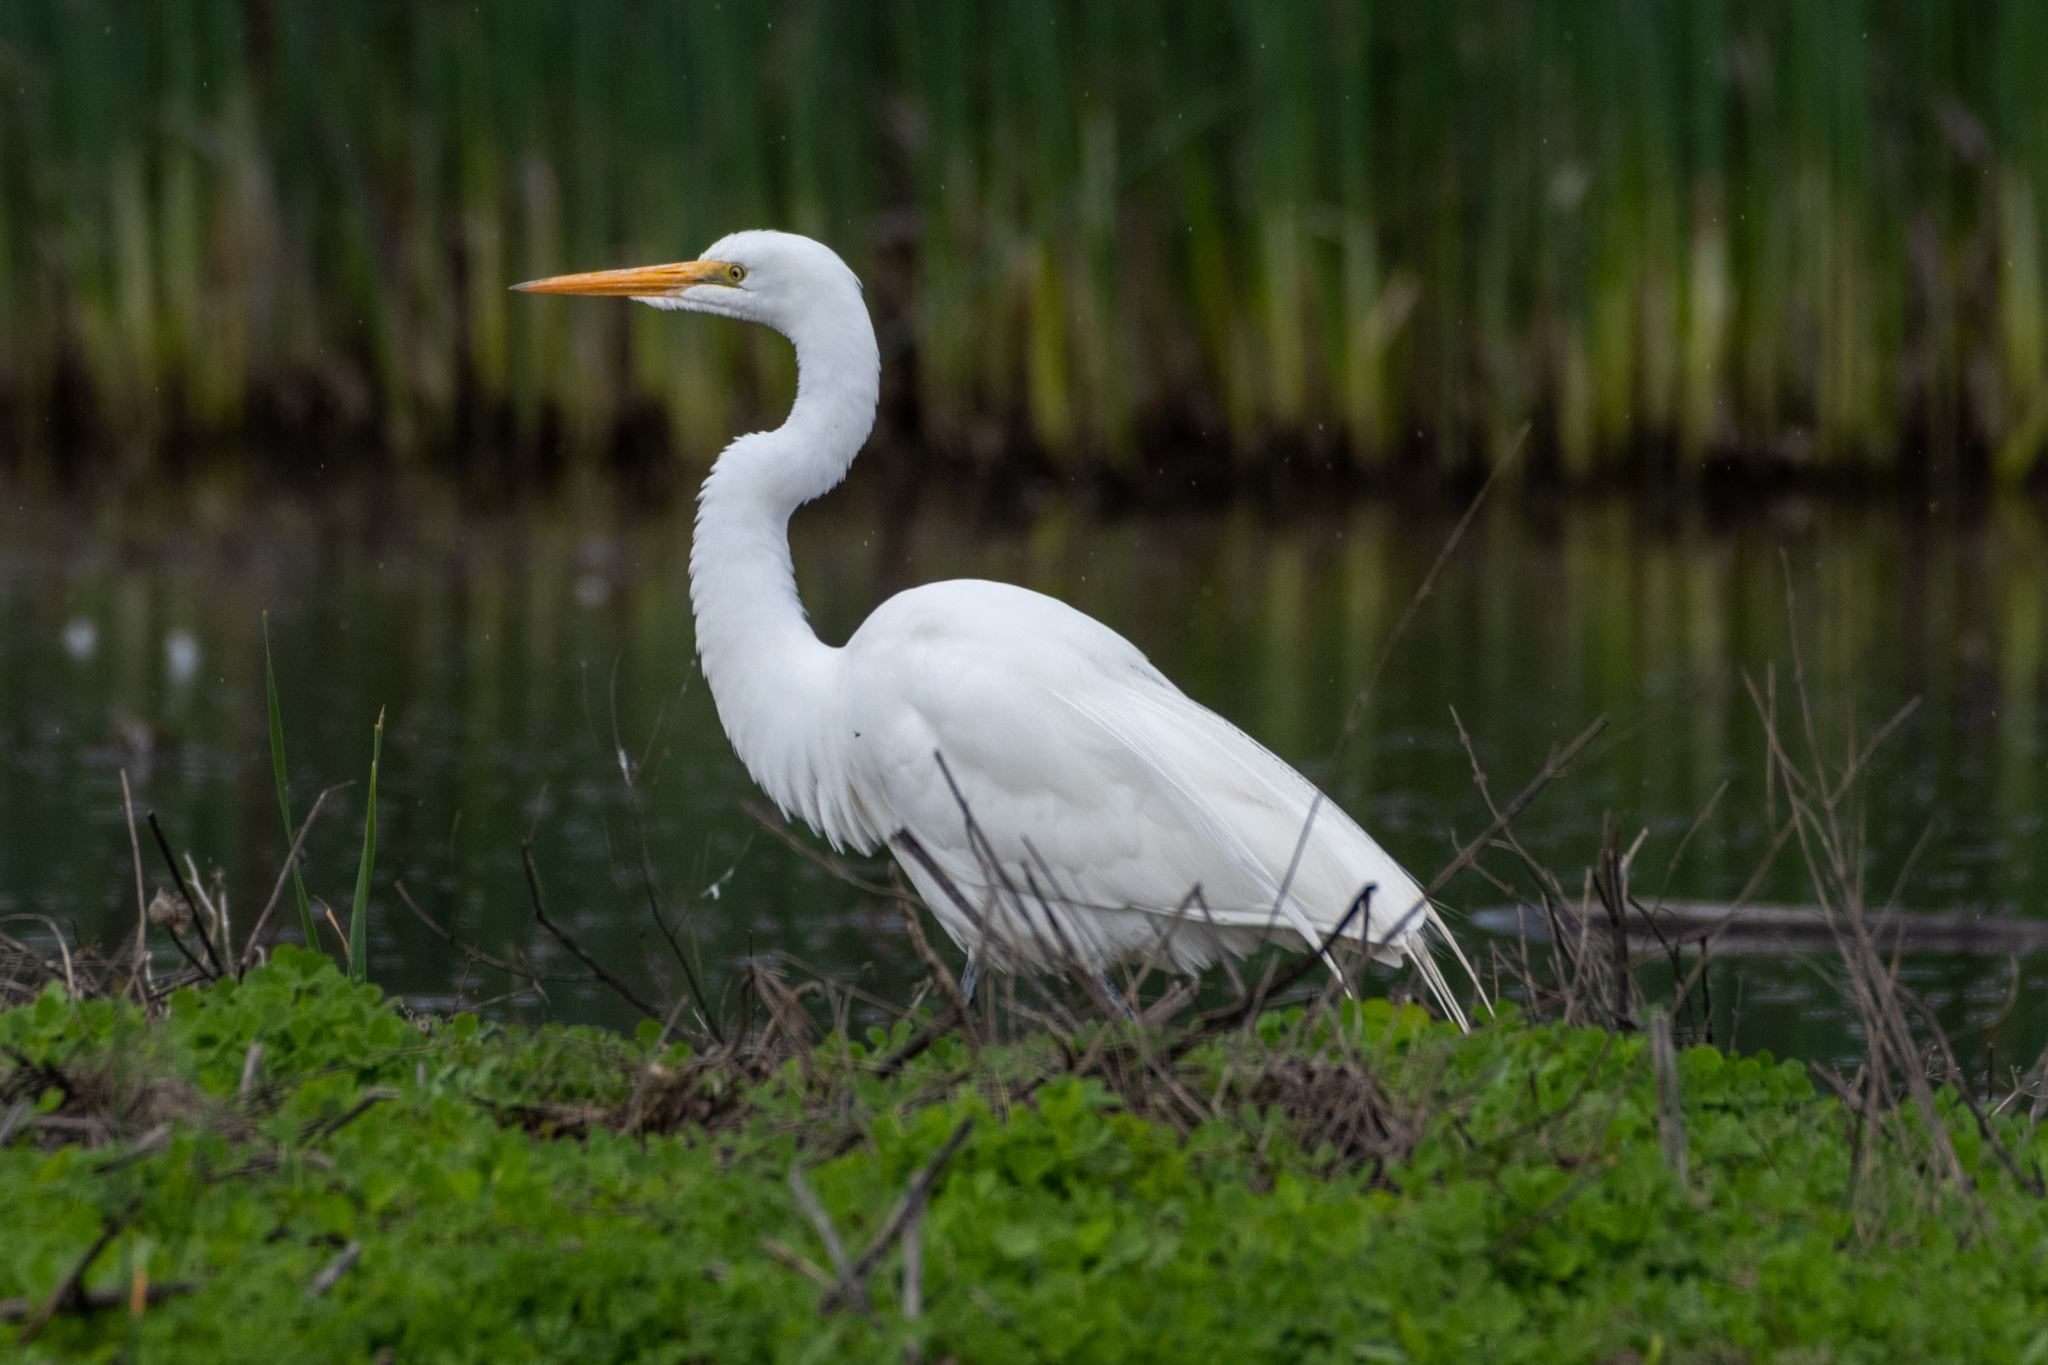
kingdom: Animalia
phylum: Chordata
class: Aves
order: Pelecaniformes
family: Ardeidae
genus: Ardea
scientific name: Ardea alba
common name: Great egret
